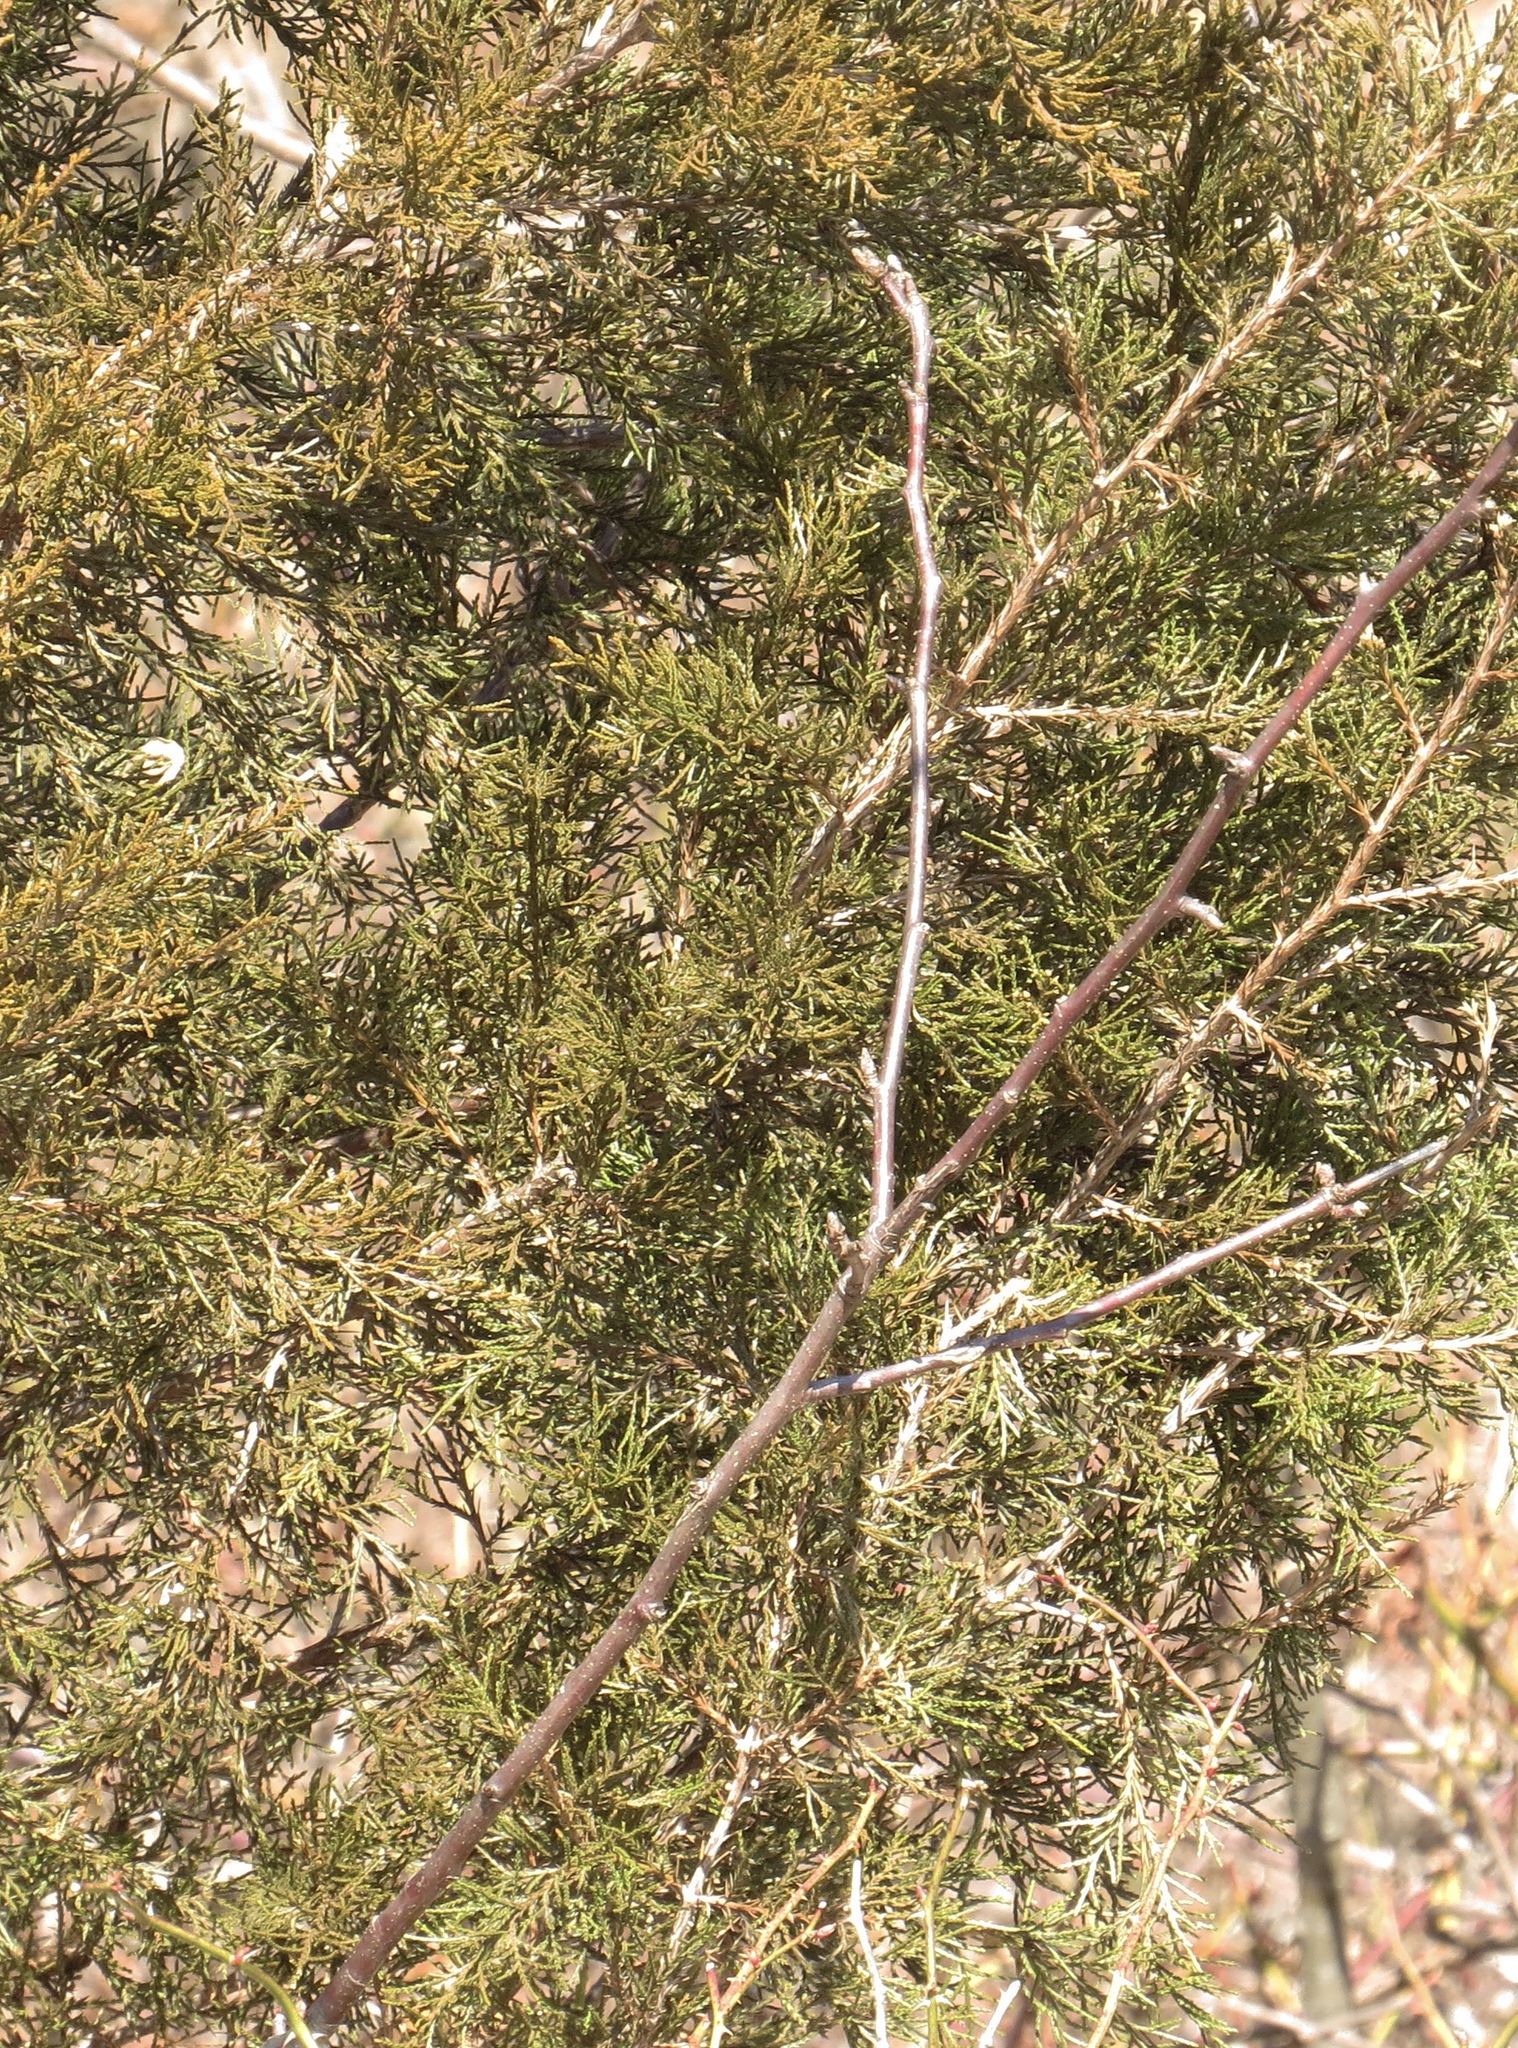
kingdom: Plantae
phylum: Tracheophyta
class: Pinopsida
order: Pinales
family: Cupressaceae
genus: Juniperus
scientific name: Juniperus virginiana
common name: Red juniper
